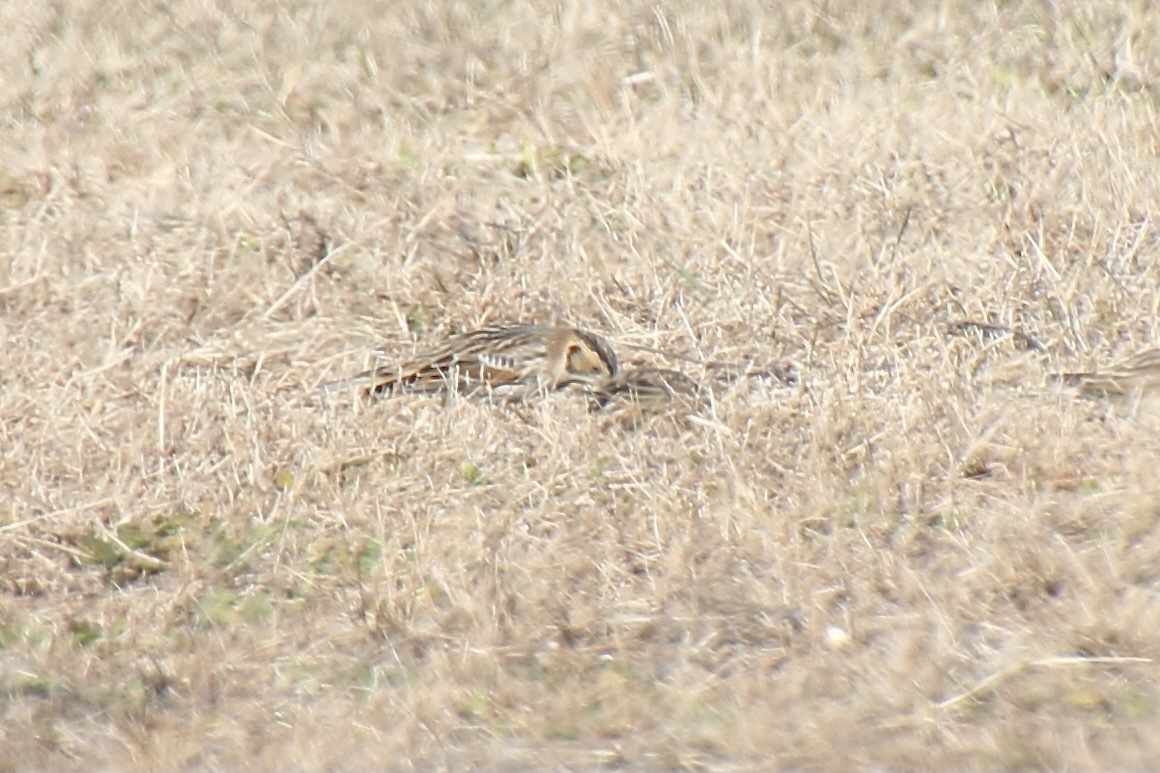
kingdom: Animalia
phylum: Chordata
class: Aves
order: Passeriformes
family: Calcariidae
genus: Calcarius
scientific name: Calcarius lapponicus
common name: Lapland longspur
